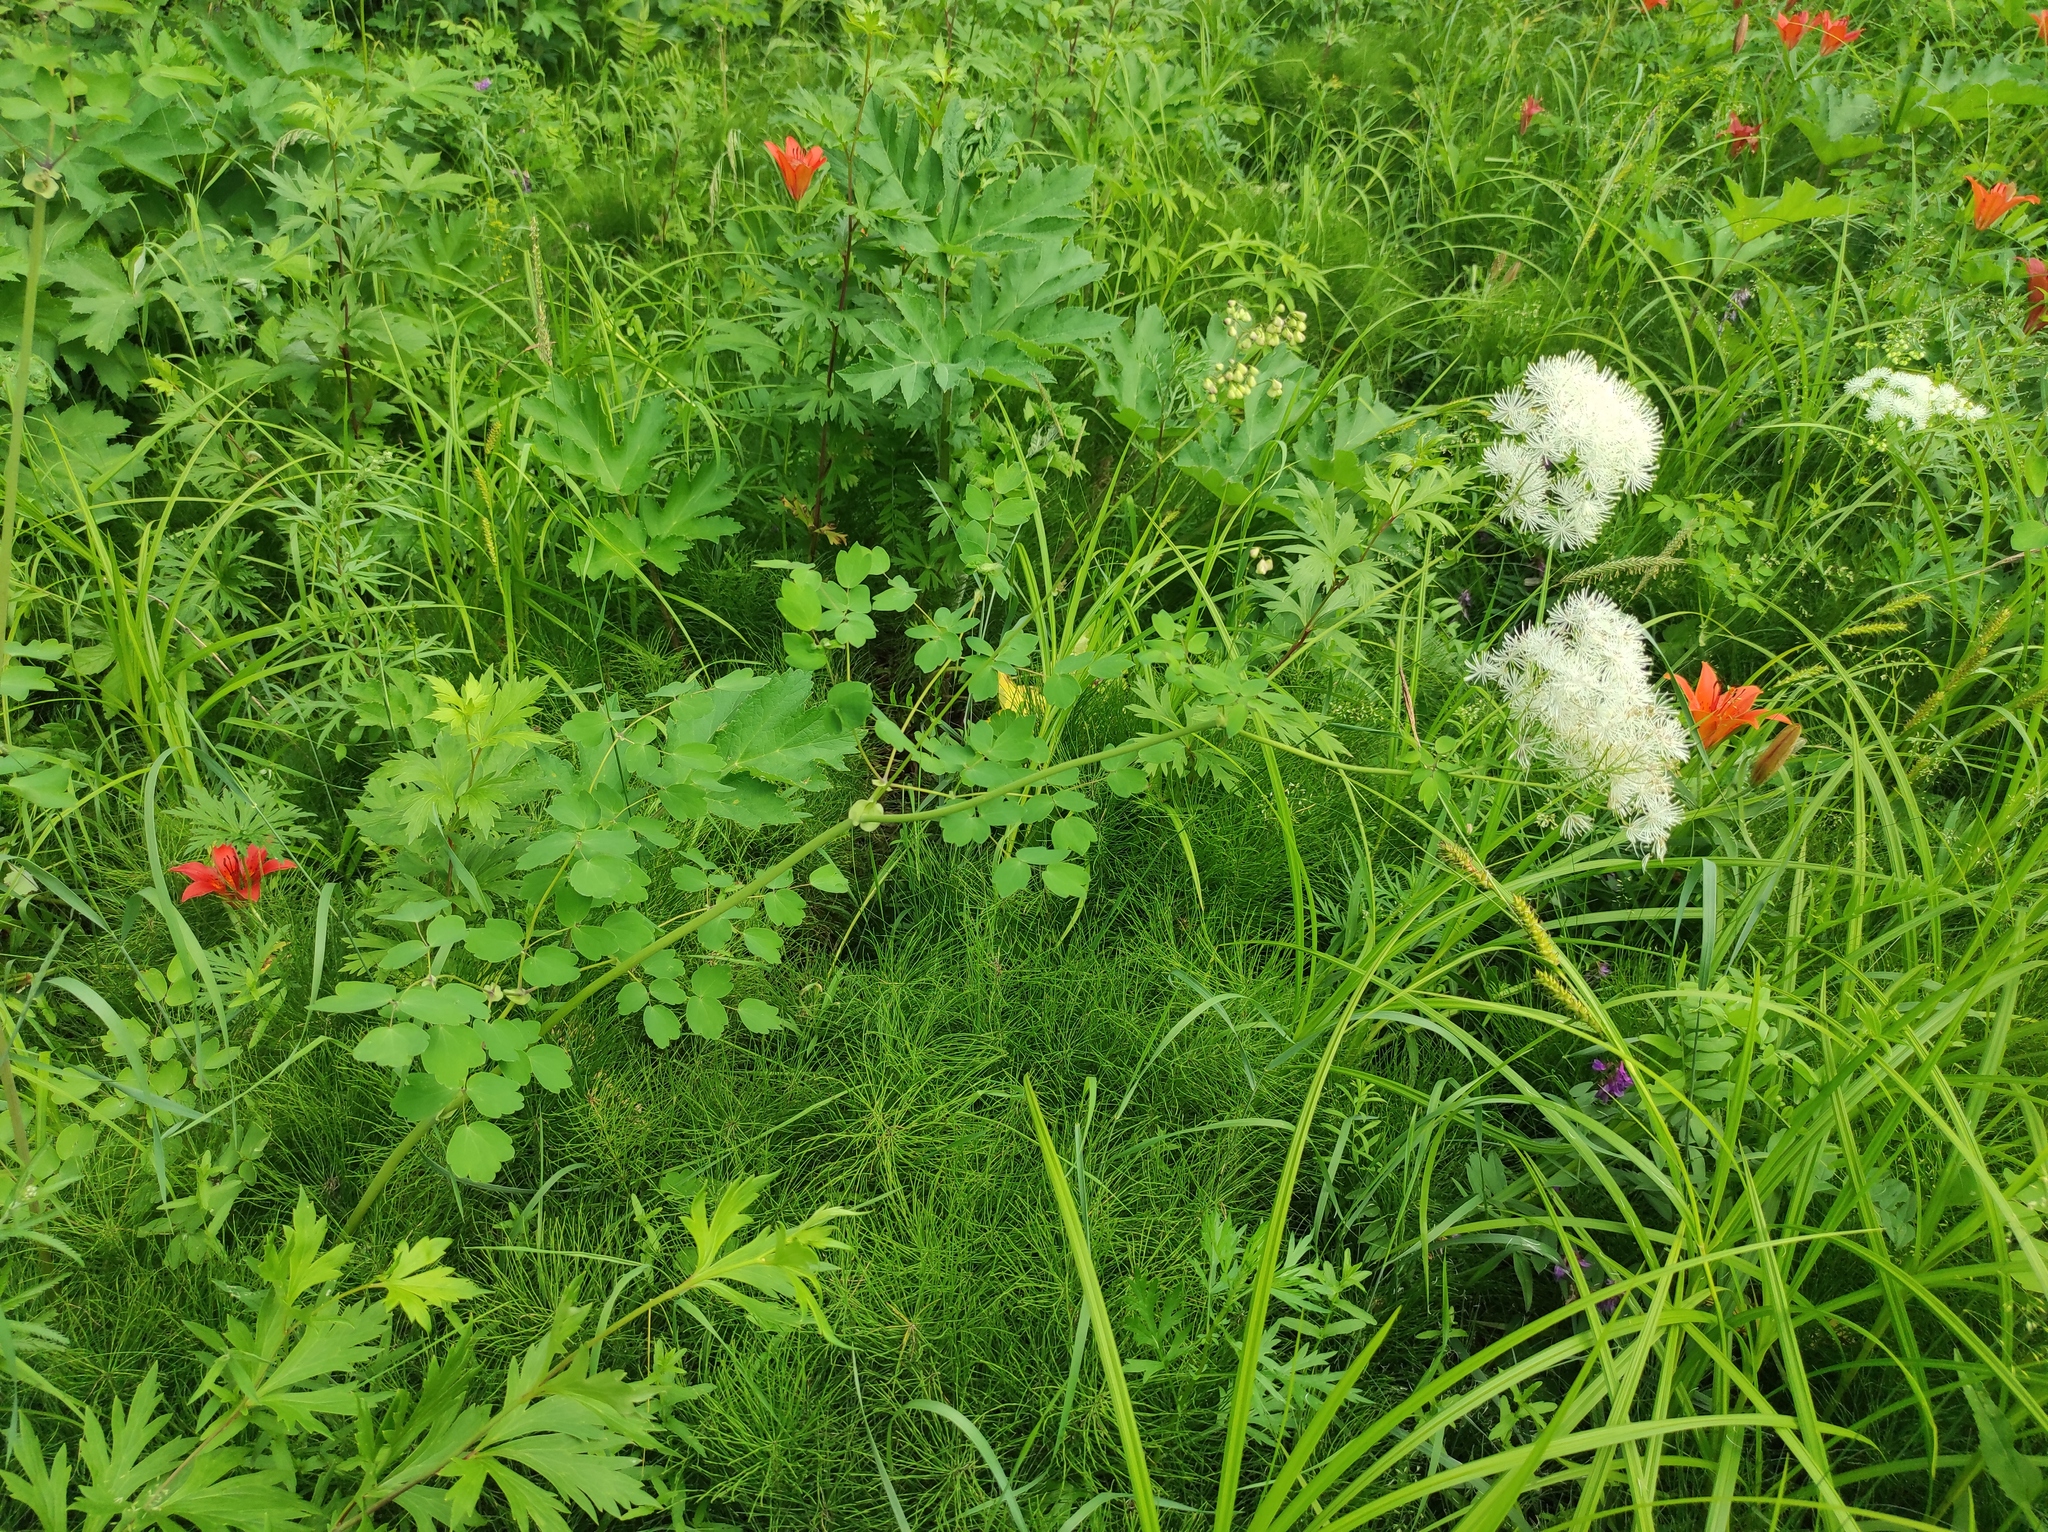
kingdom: Animalia
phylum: Arthropoda
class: Insecta
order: Lepidoptera
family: Pieridae
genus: Aporia
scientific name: Aporia crataegi
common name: Black-veined white
